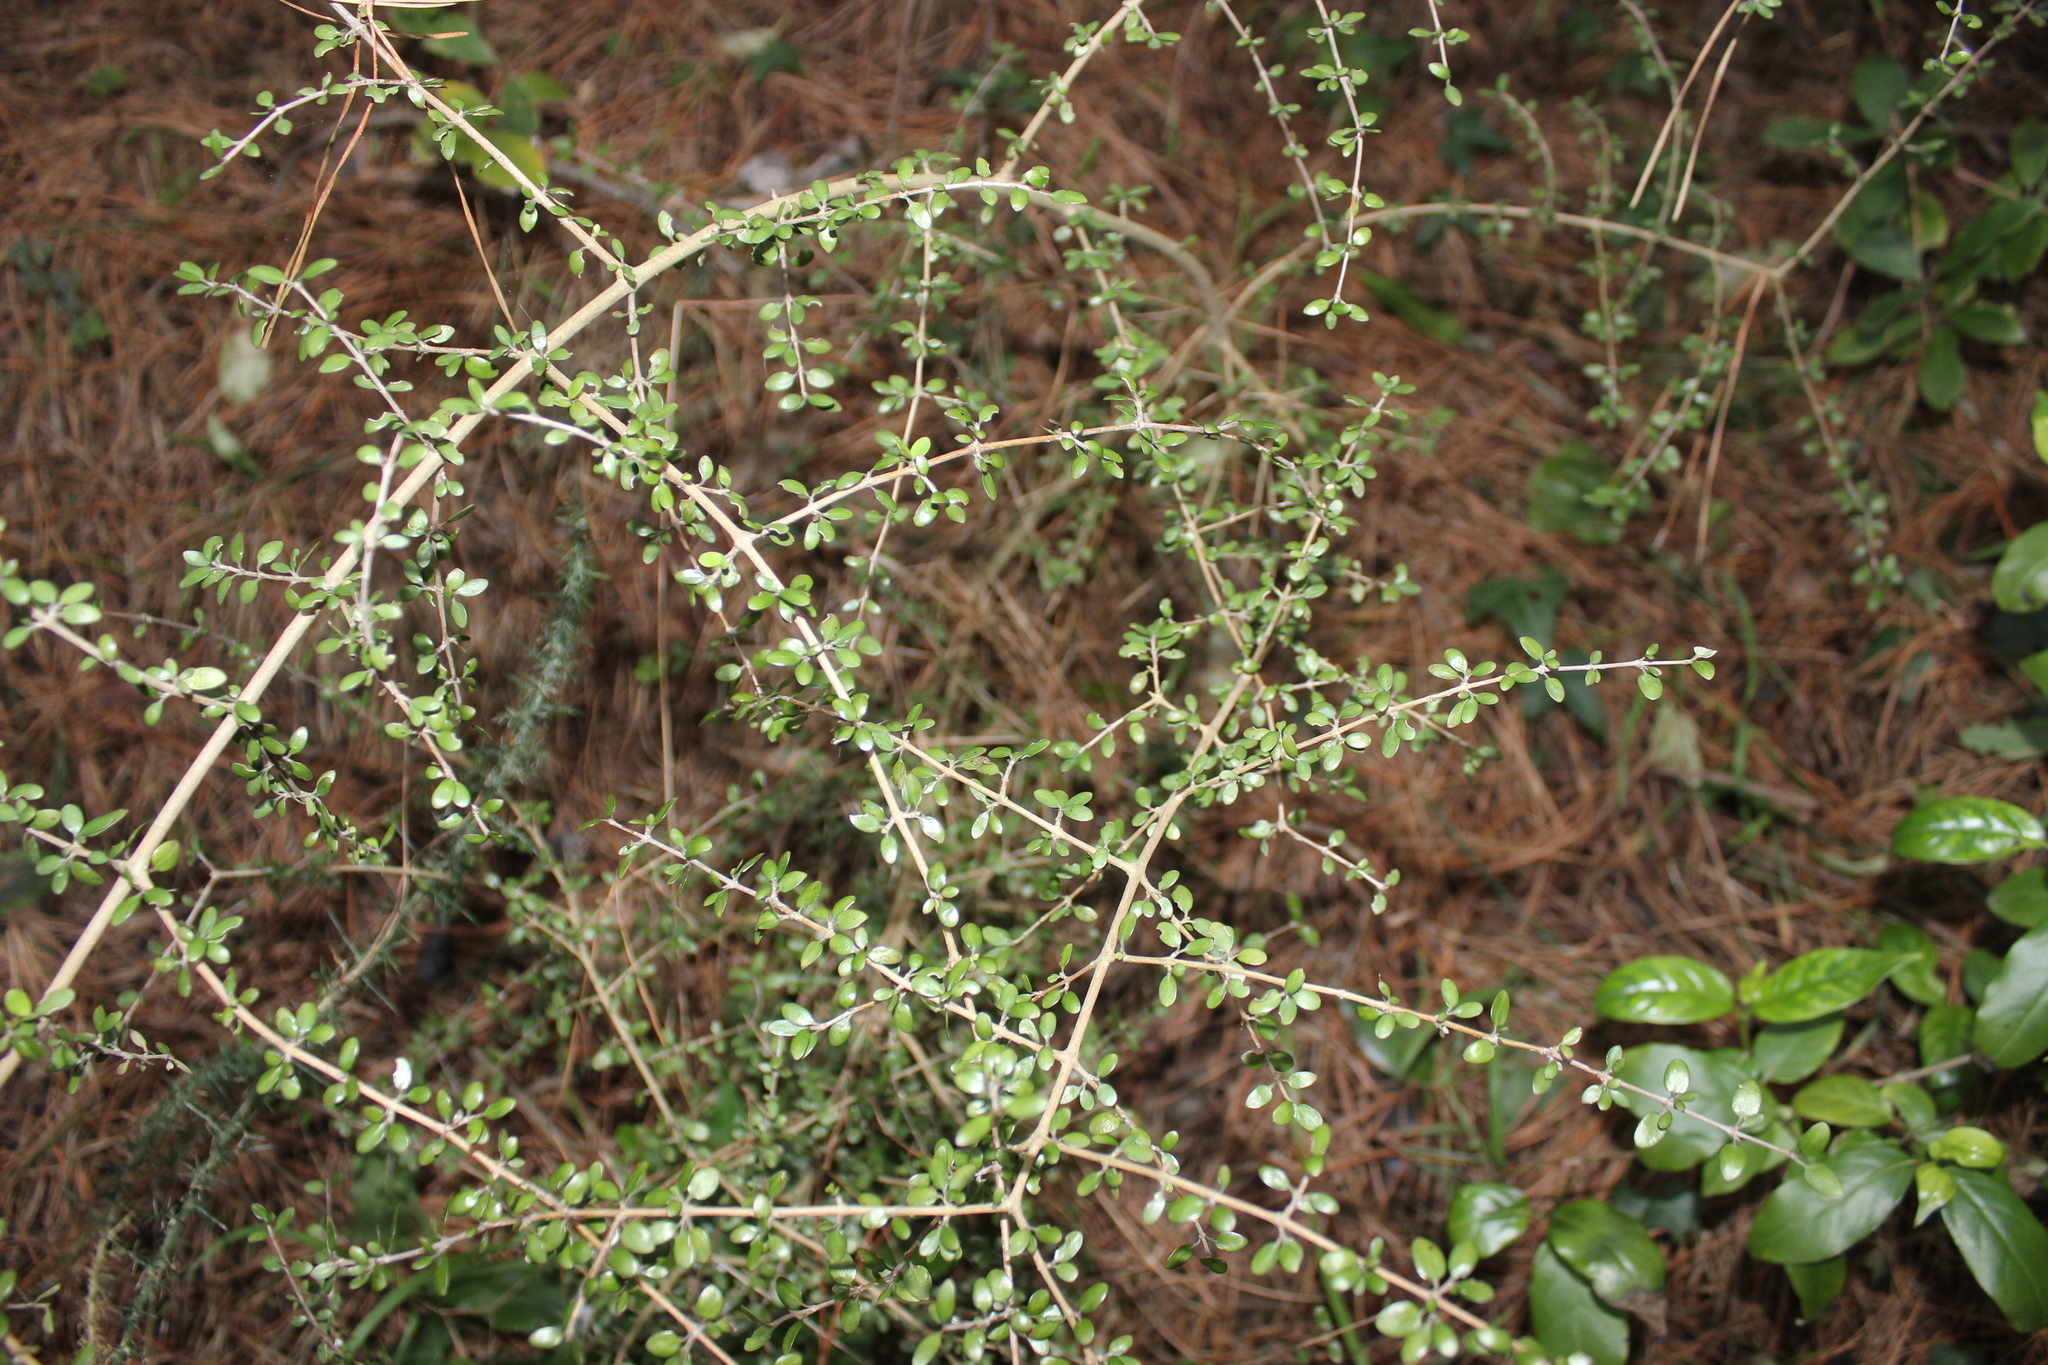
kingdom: Plantae
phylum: Tracheophyta
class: Magnoliopsida
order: Gentianales
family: Rubiaceae
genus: Coprosma
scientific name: Coprosma propinqua
